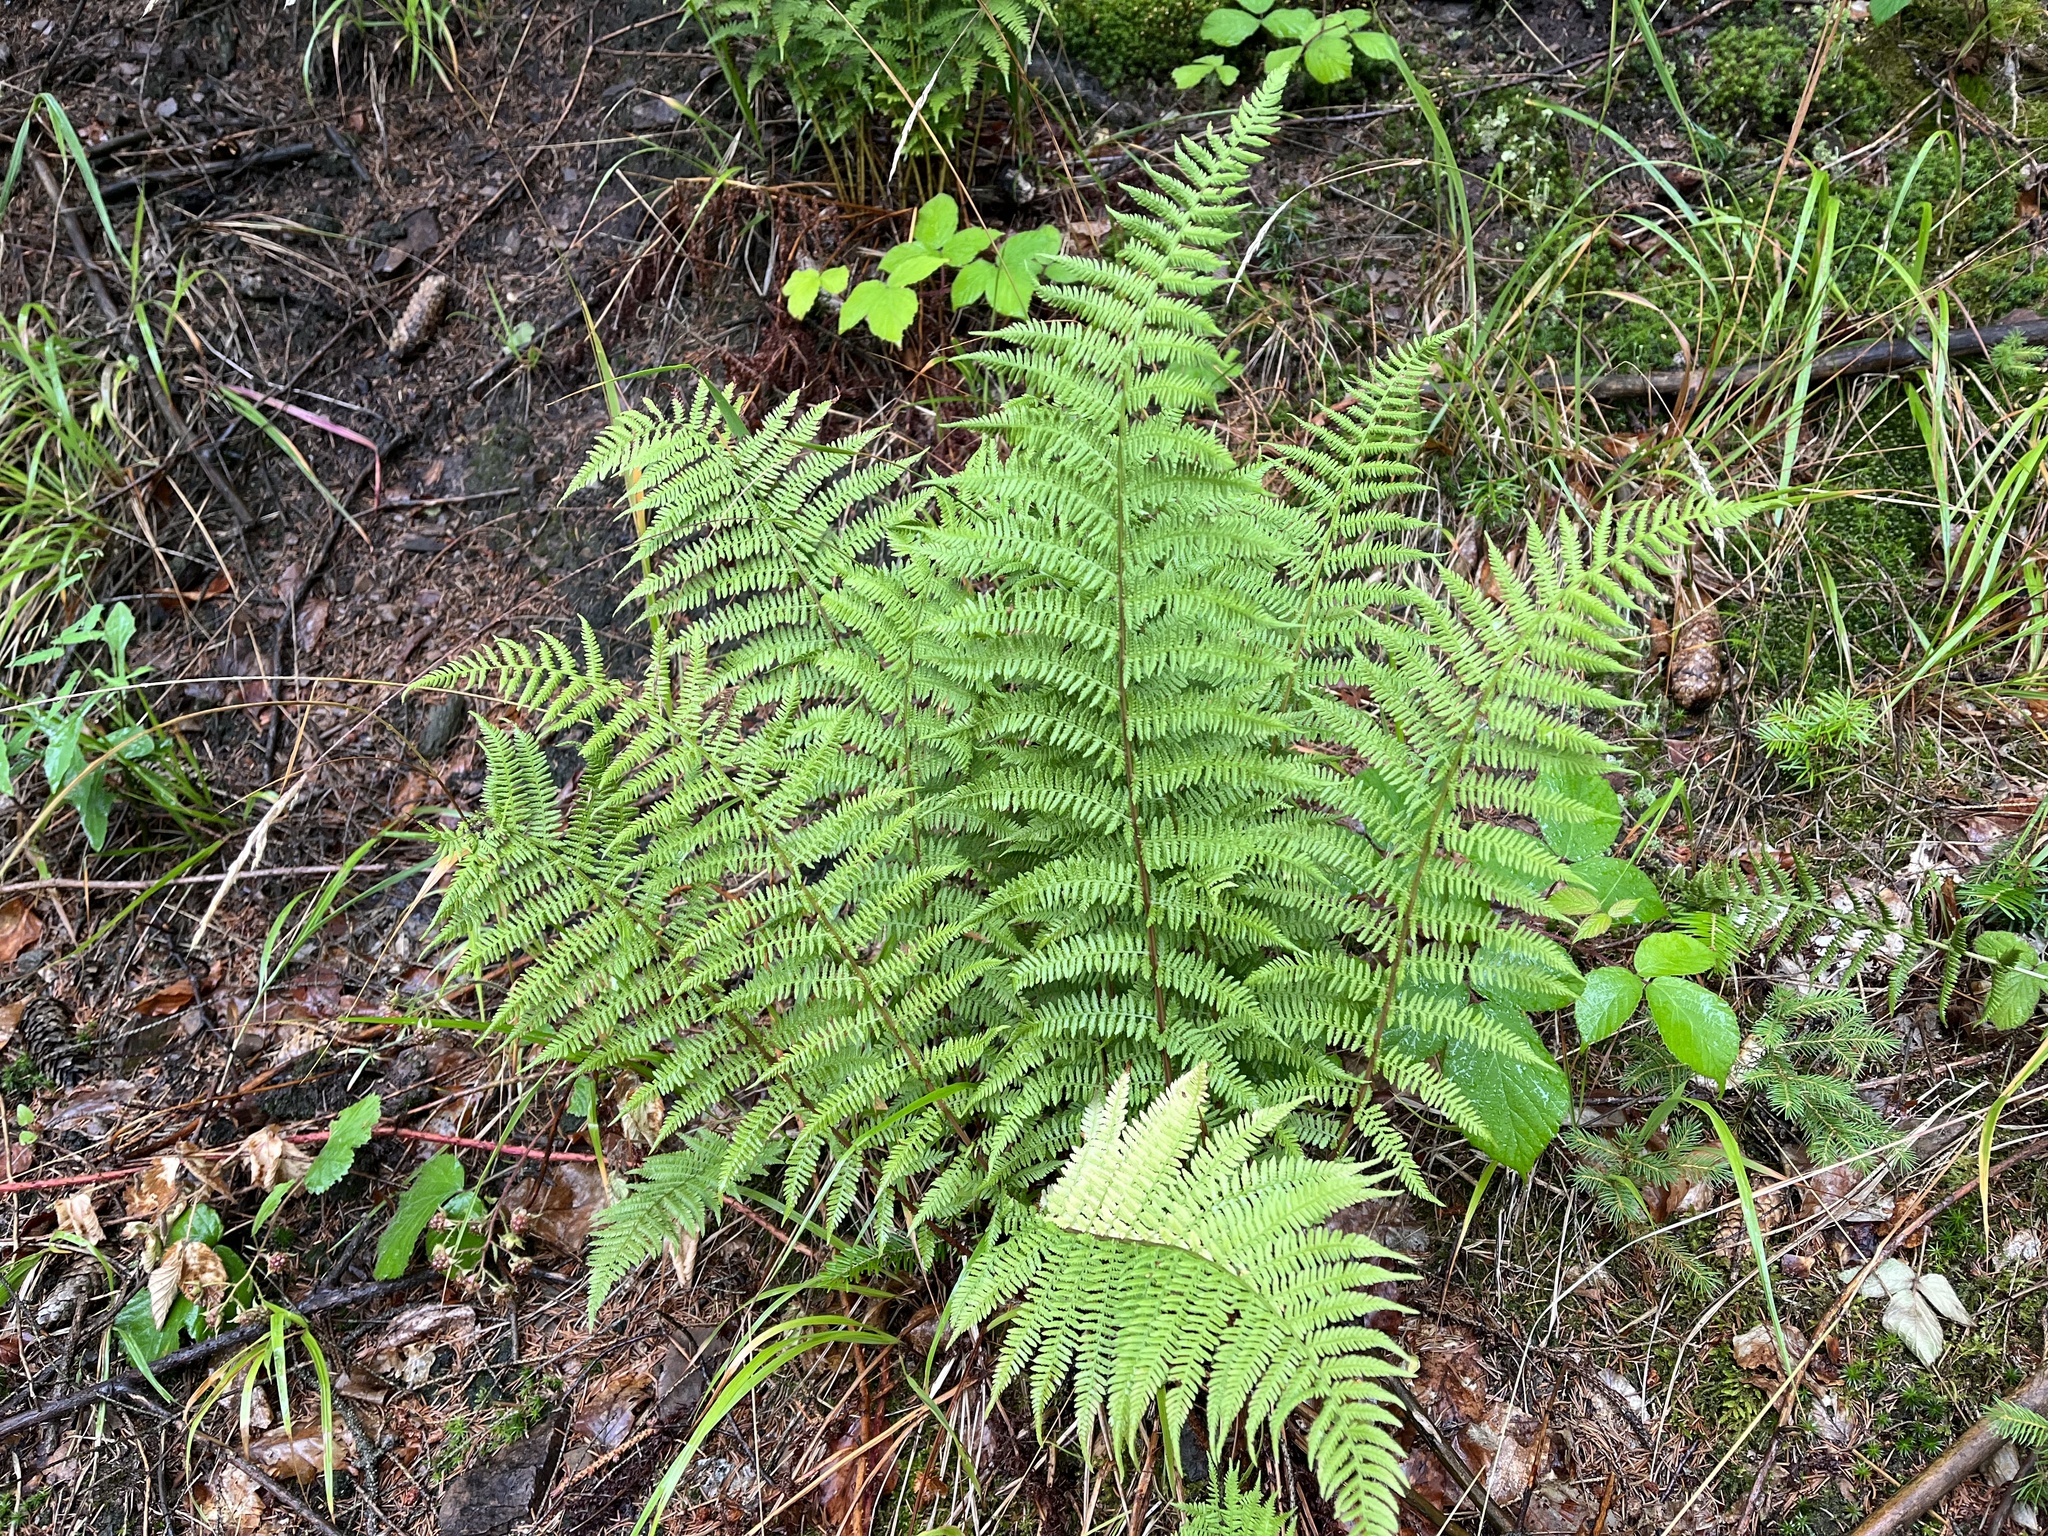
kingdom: Plantae
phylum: Tracheophyta
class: Polypodiopsida
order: Polypodiales
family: Athyriaceae
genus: Athyrium
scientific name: Athyrium filix-femina
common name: Lady fern
